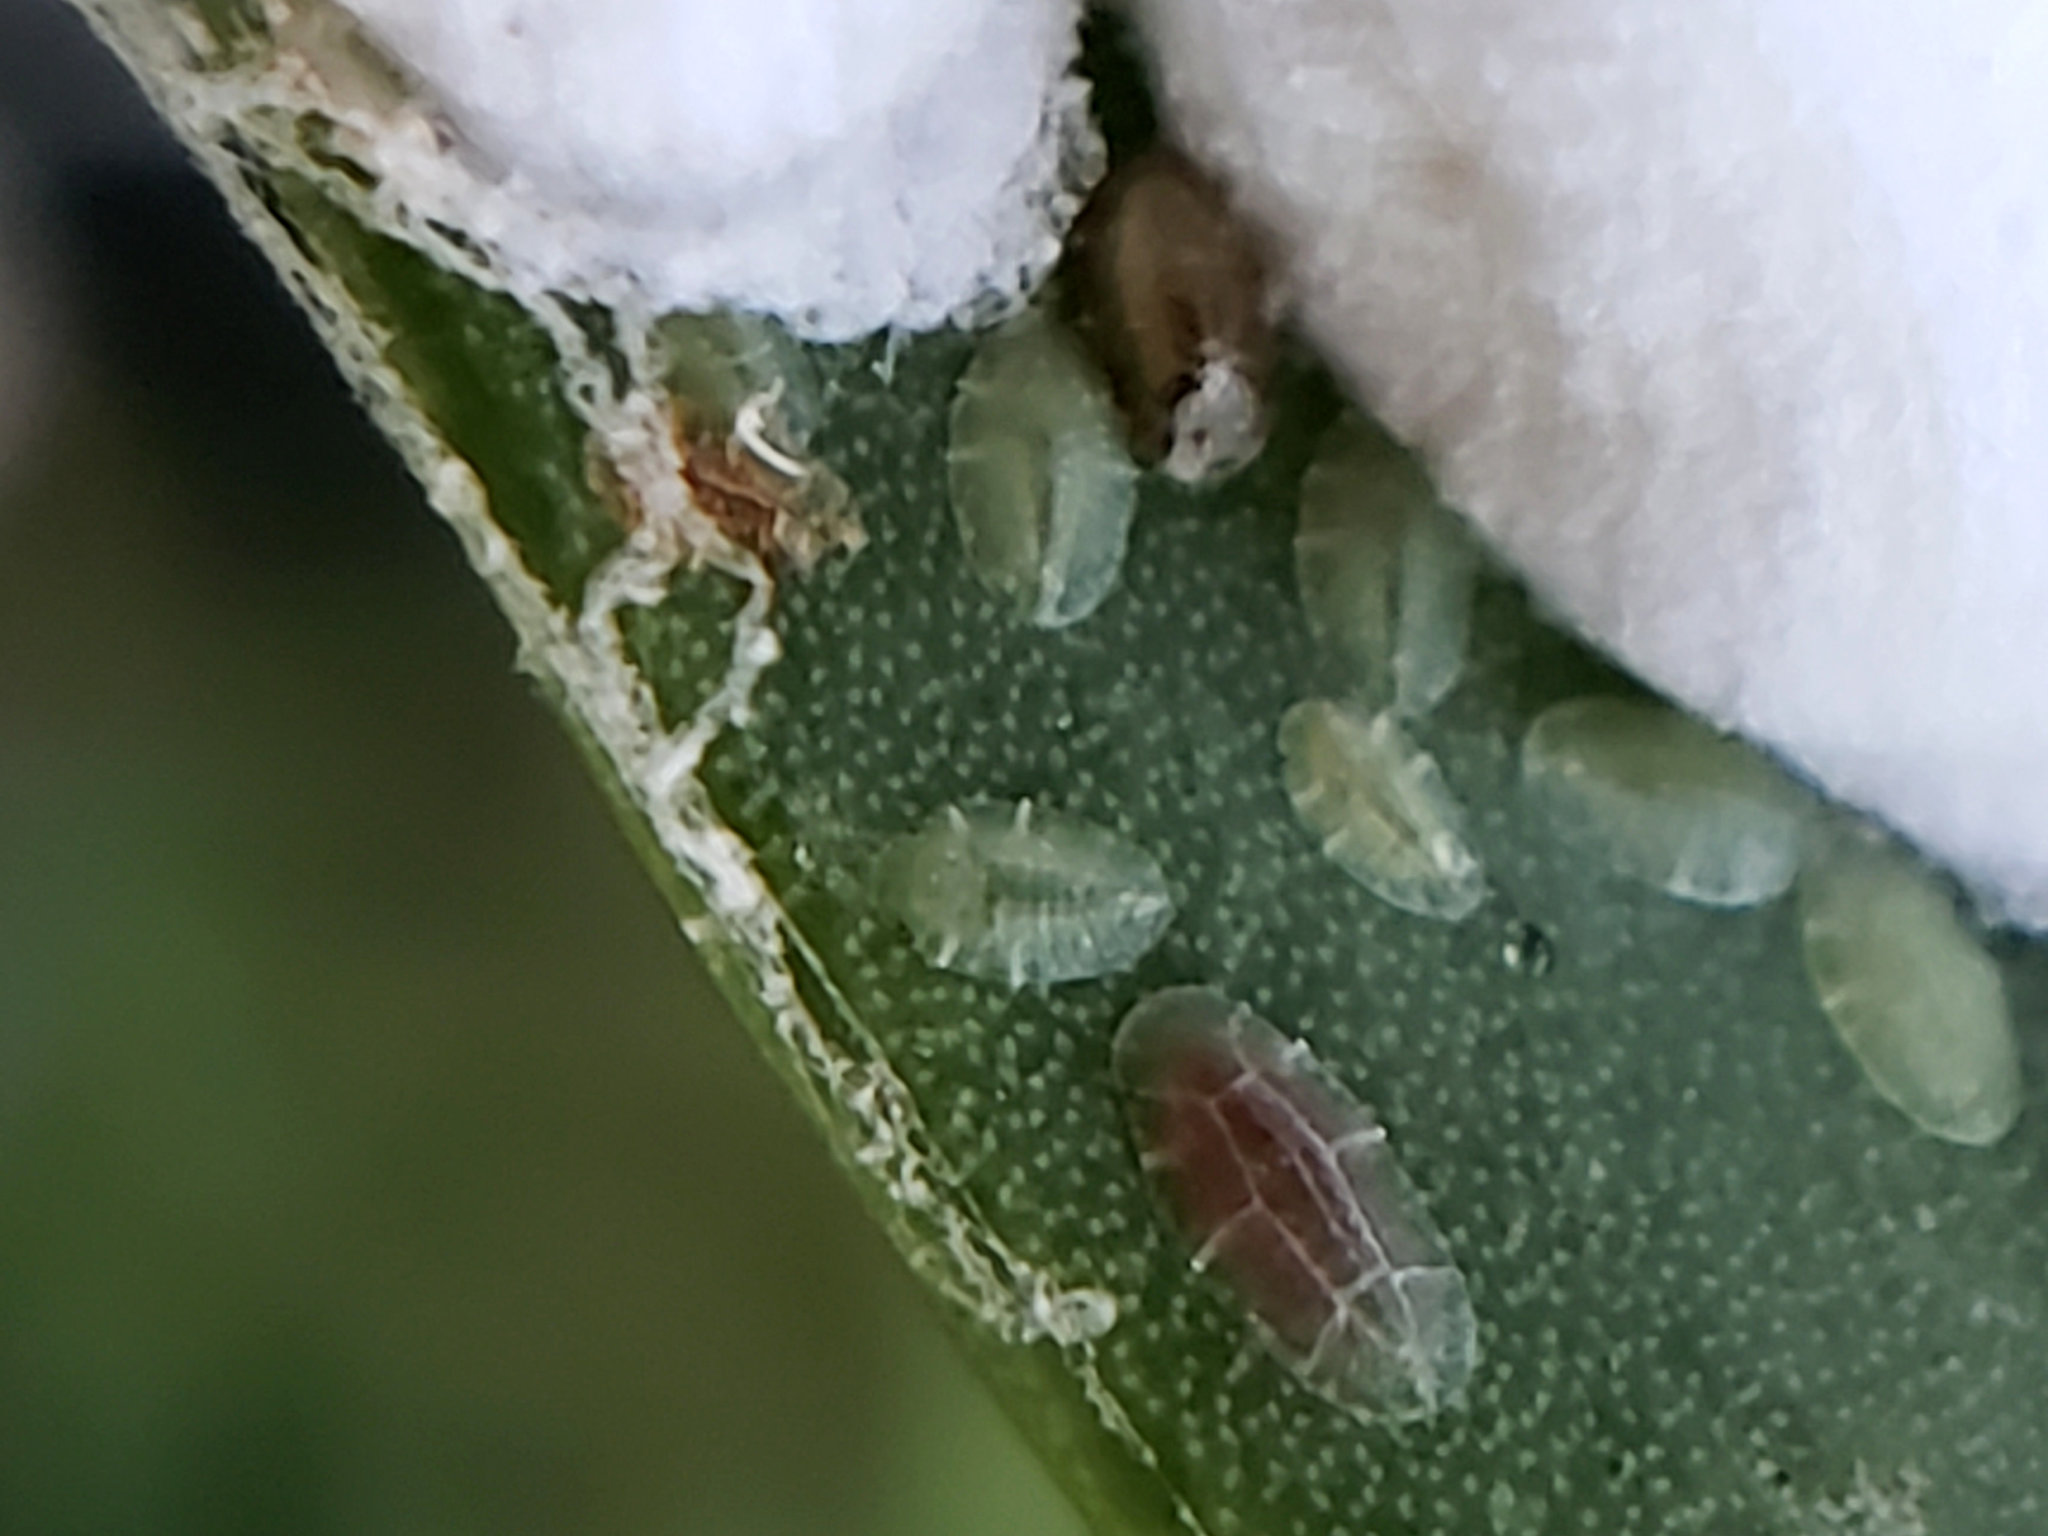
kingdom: Animalia
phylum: Arthropoda
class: Insecta
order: Hemiptera
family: Coccidae
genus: Pulvinariella
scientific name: Pulvinariella mesembryanthemi
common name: Cottony pigface scale
